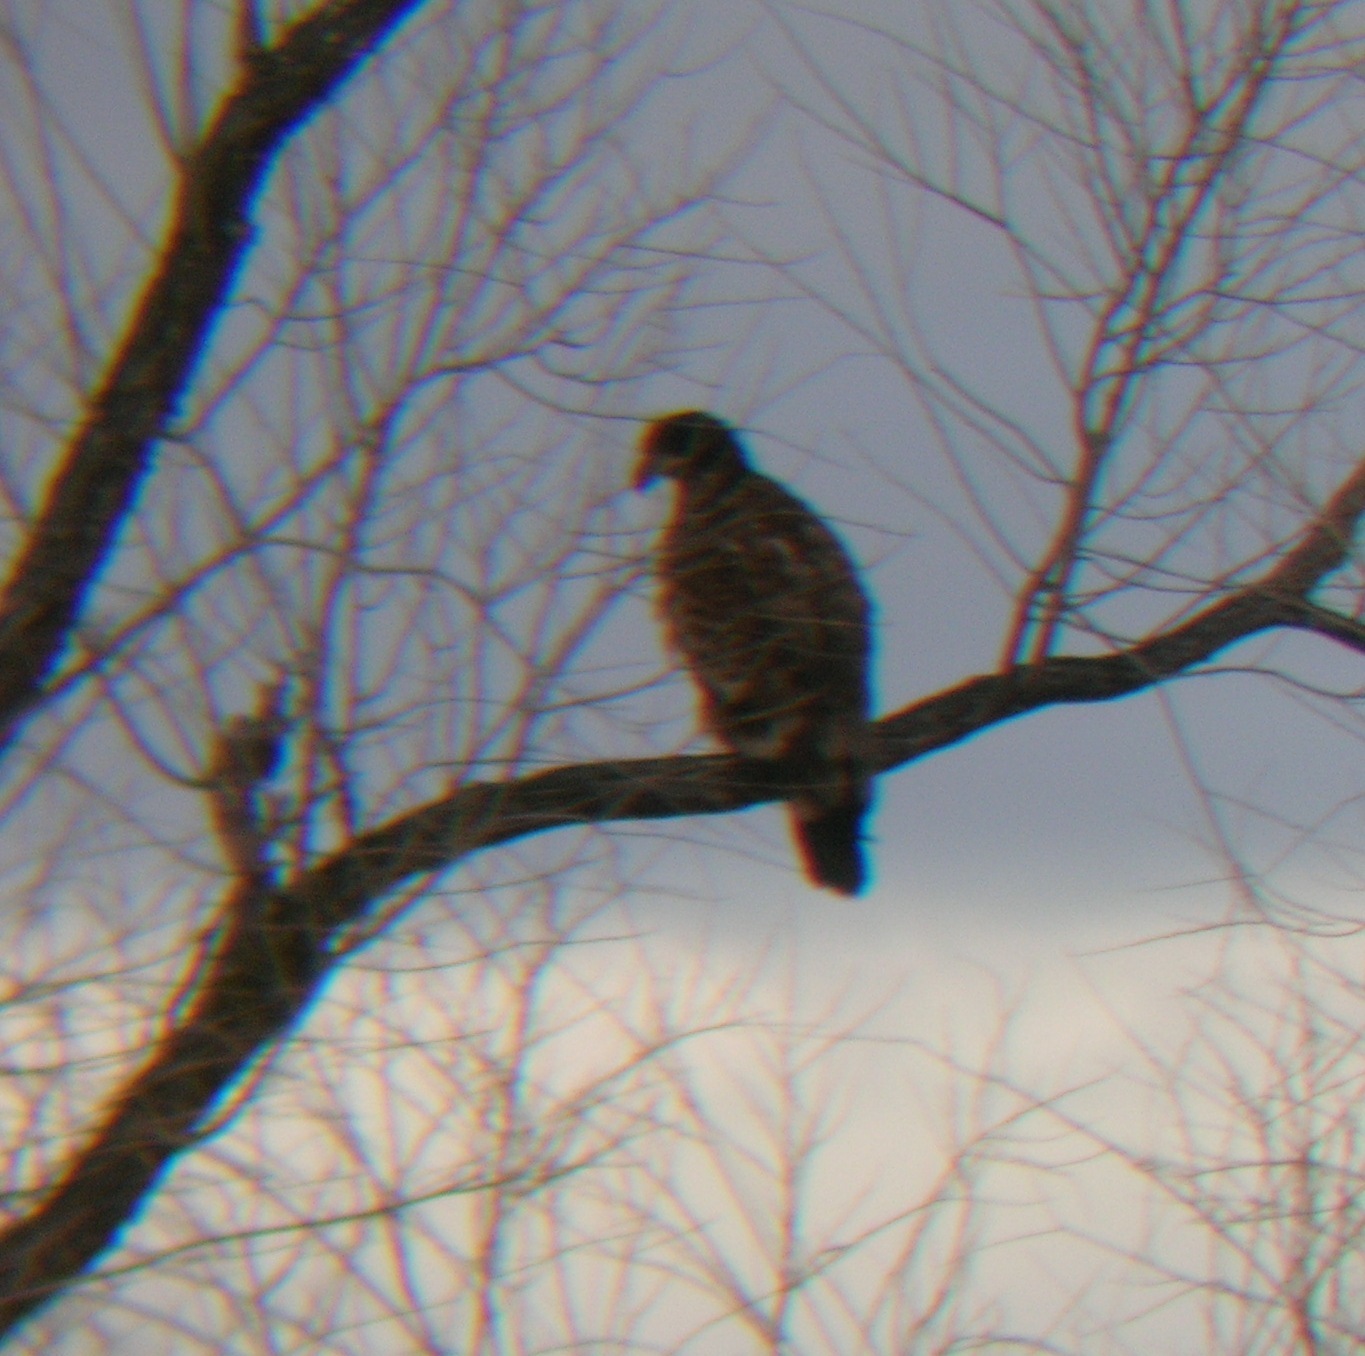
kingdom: Animalia
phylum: Chordata
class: Aves
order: Accipitriformes
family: Accipitridae
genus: Haliaeetus
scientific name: Haliaeetus leucocephalus
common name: Bald eagle
